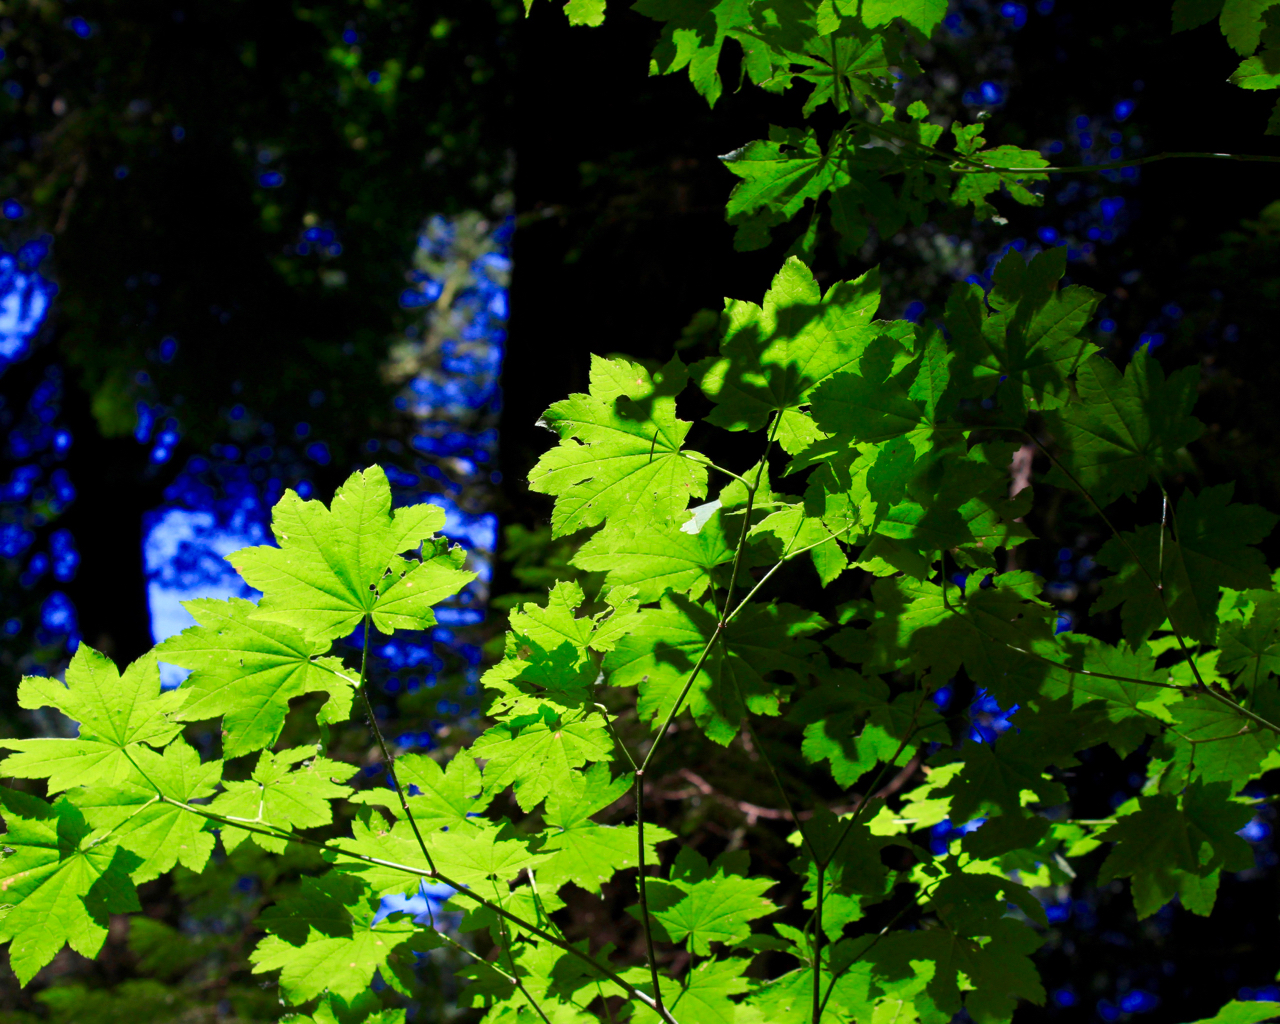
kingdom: Plantae
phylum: Tracheophyta
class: Magnoliopsida
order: Sapindales
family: Sapindaceae
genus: Acer
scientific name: Acer circinatum
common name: Vine maple
